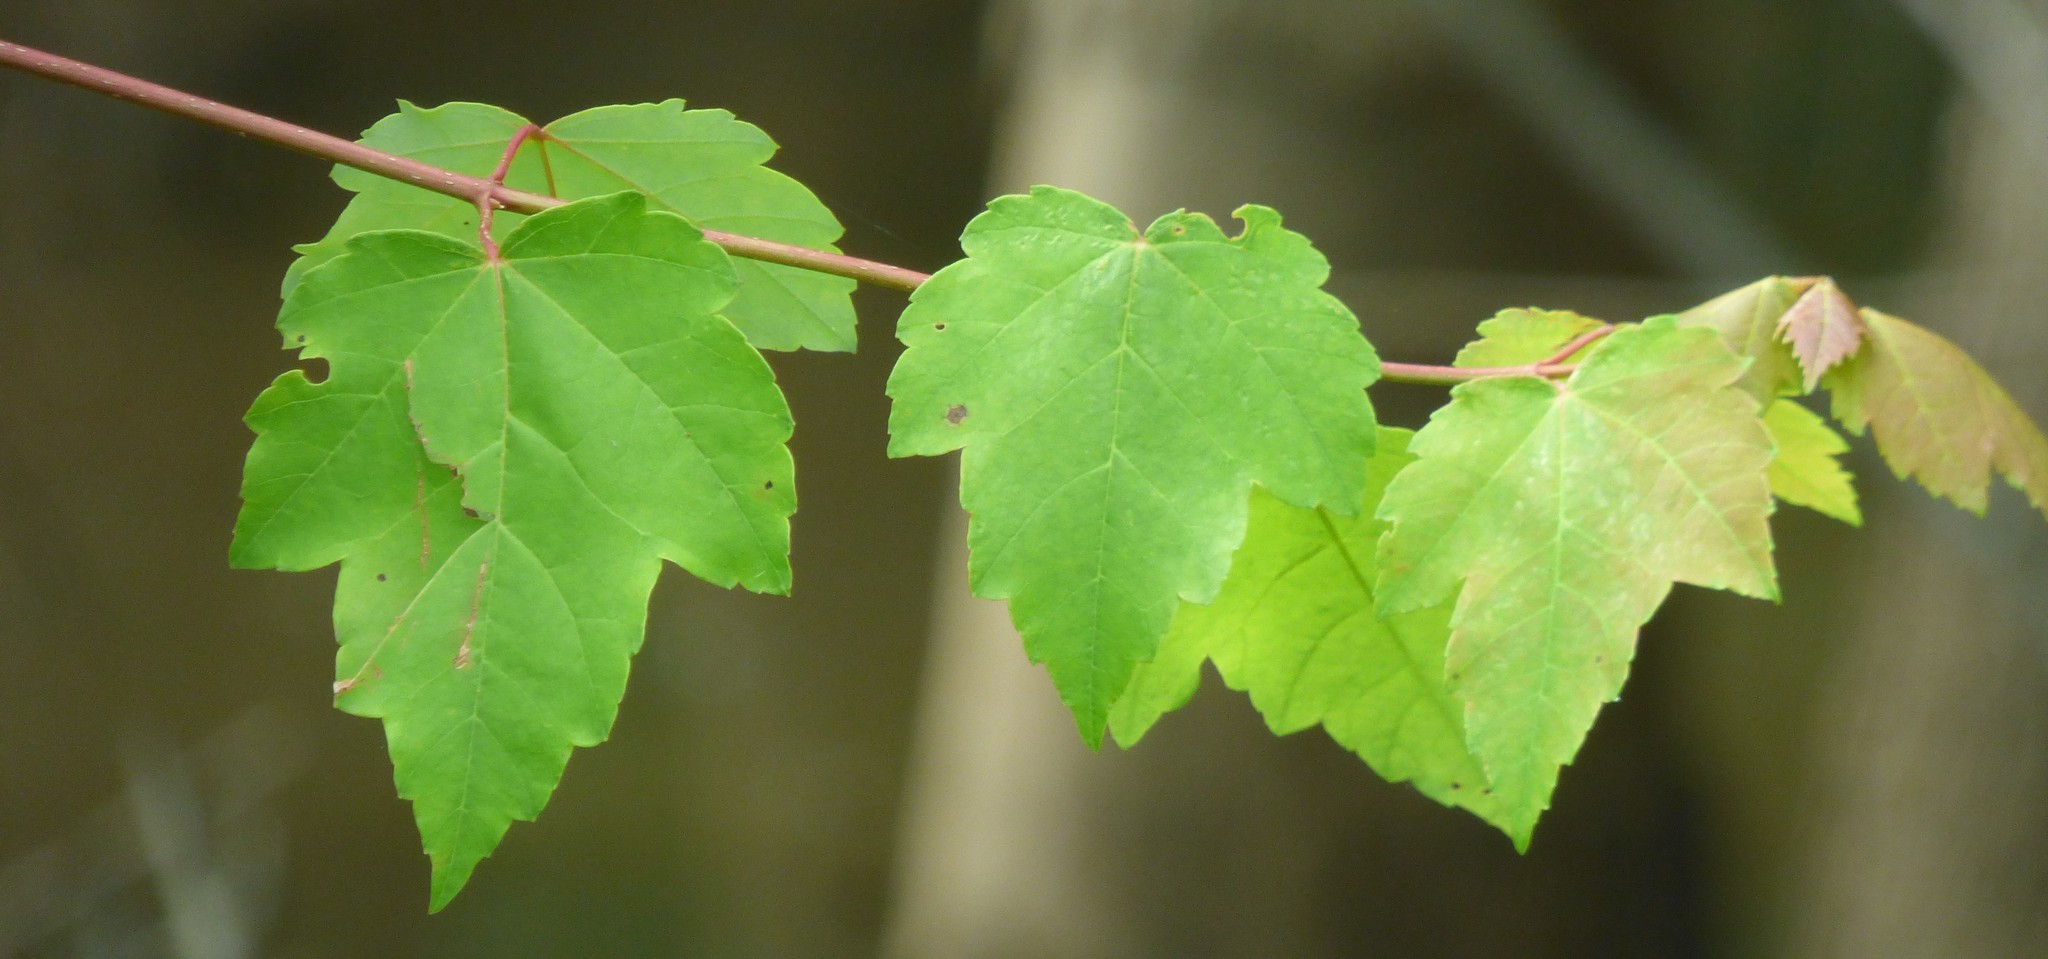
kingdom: Plantae
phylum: Tracheophyta
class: Magnoliopsida
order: Sapindales
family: Sapindaceae
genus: Acer
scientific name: Acer rubrum
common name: Red maple
